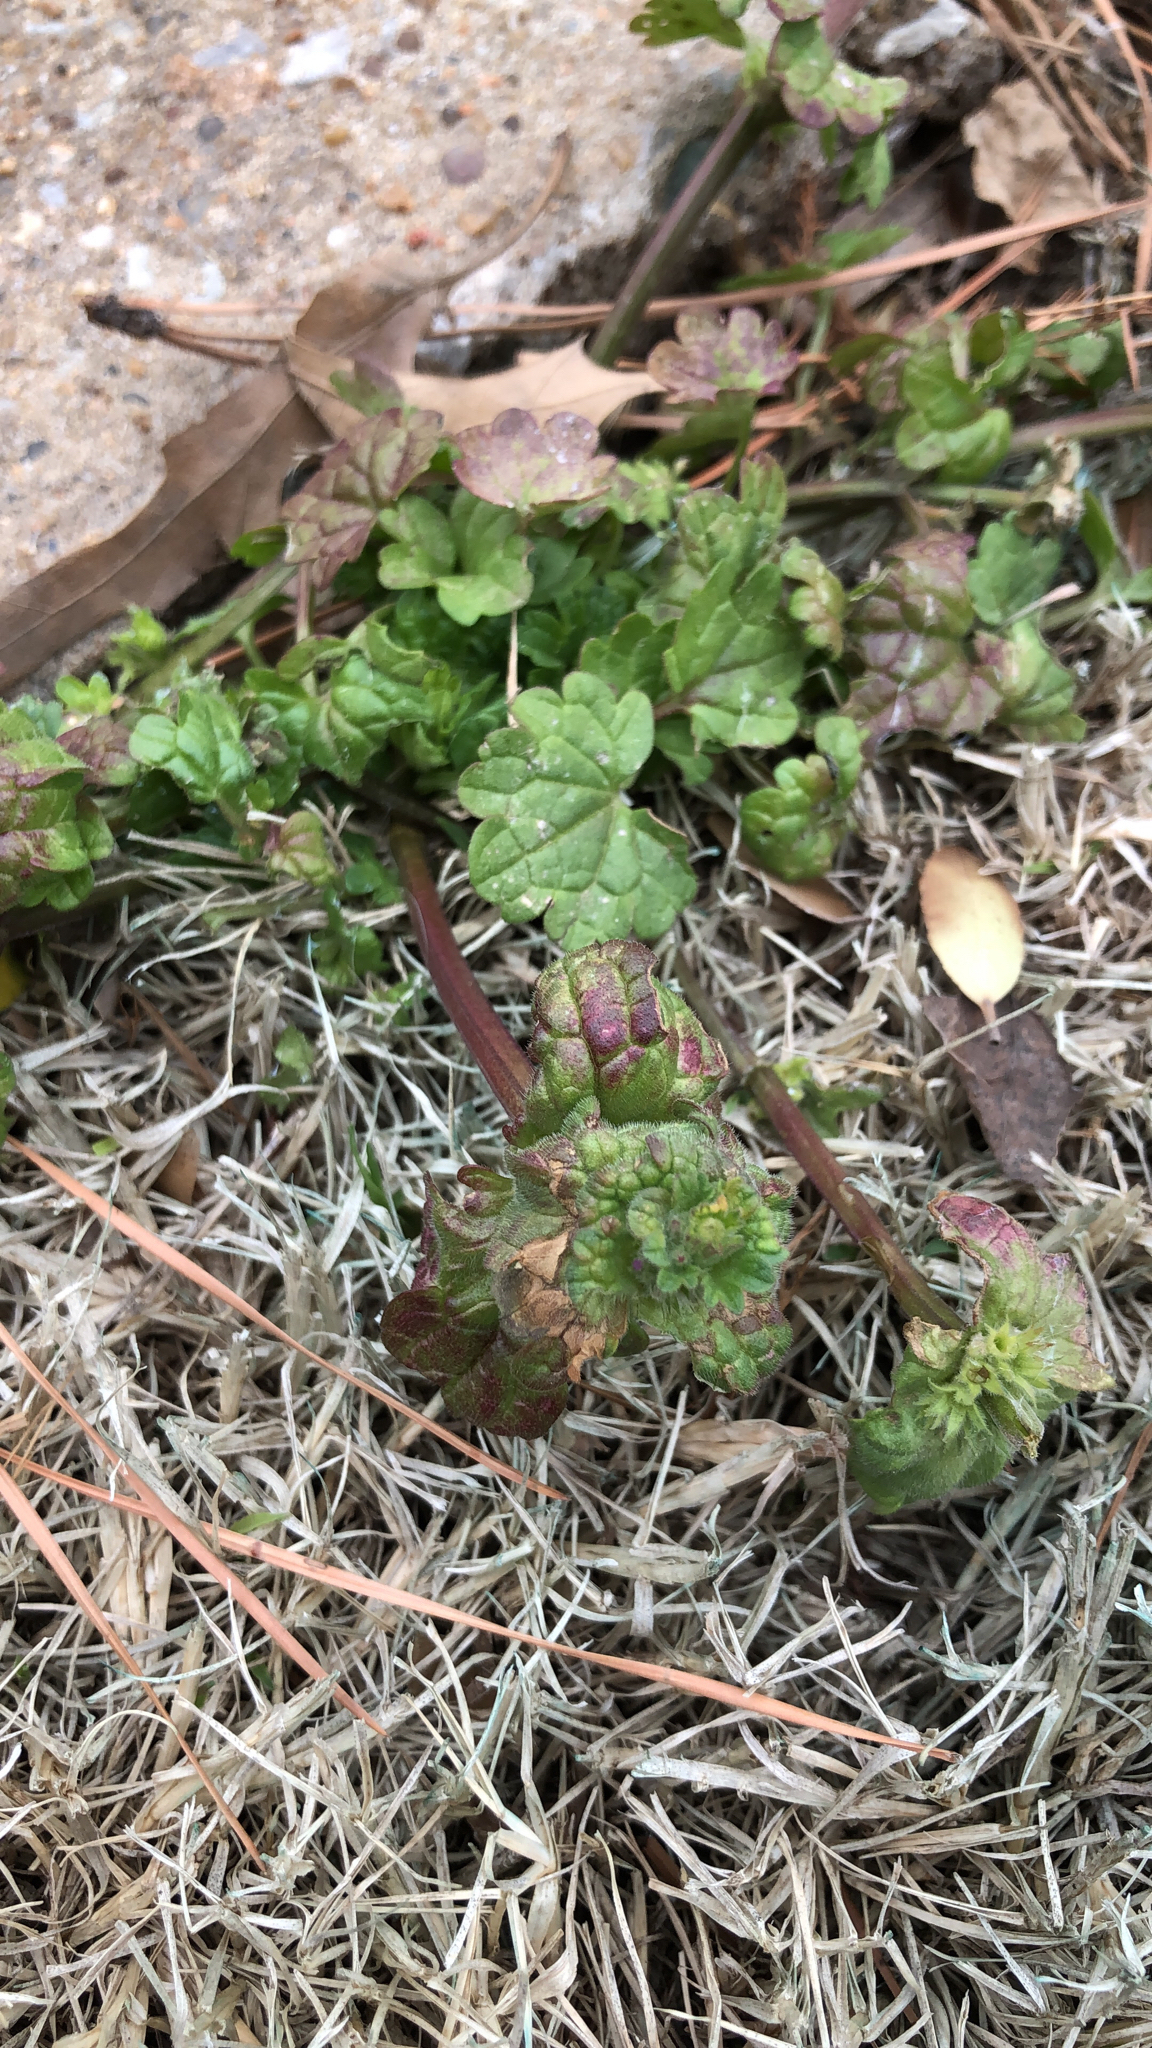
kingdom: Plantae
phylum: Tracheophyta
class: Magnoliopsida
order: Lamiales
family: Lamiaceae
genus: Lamium
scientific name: Lamium amplexicaule
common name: Henbit dead-nettle
